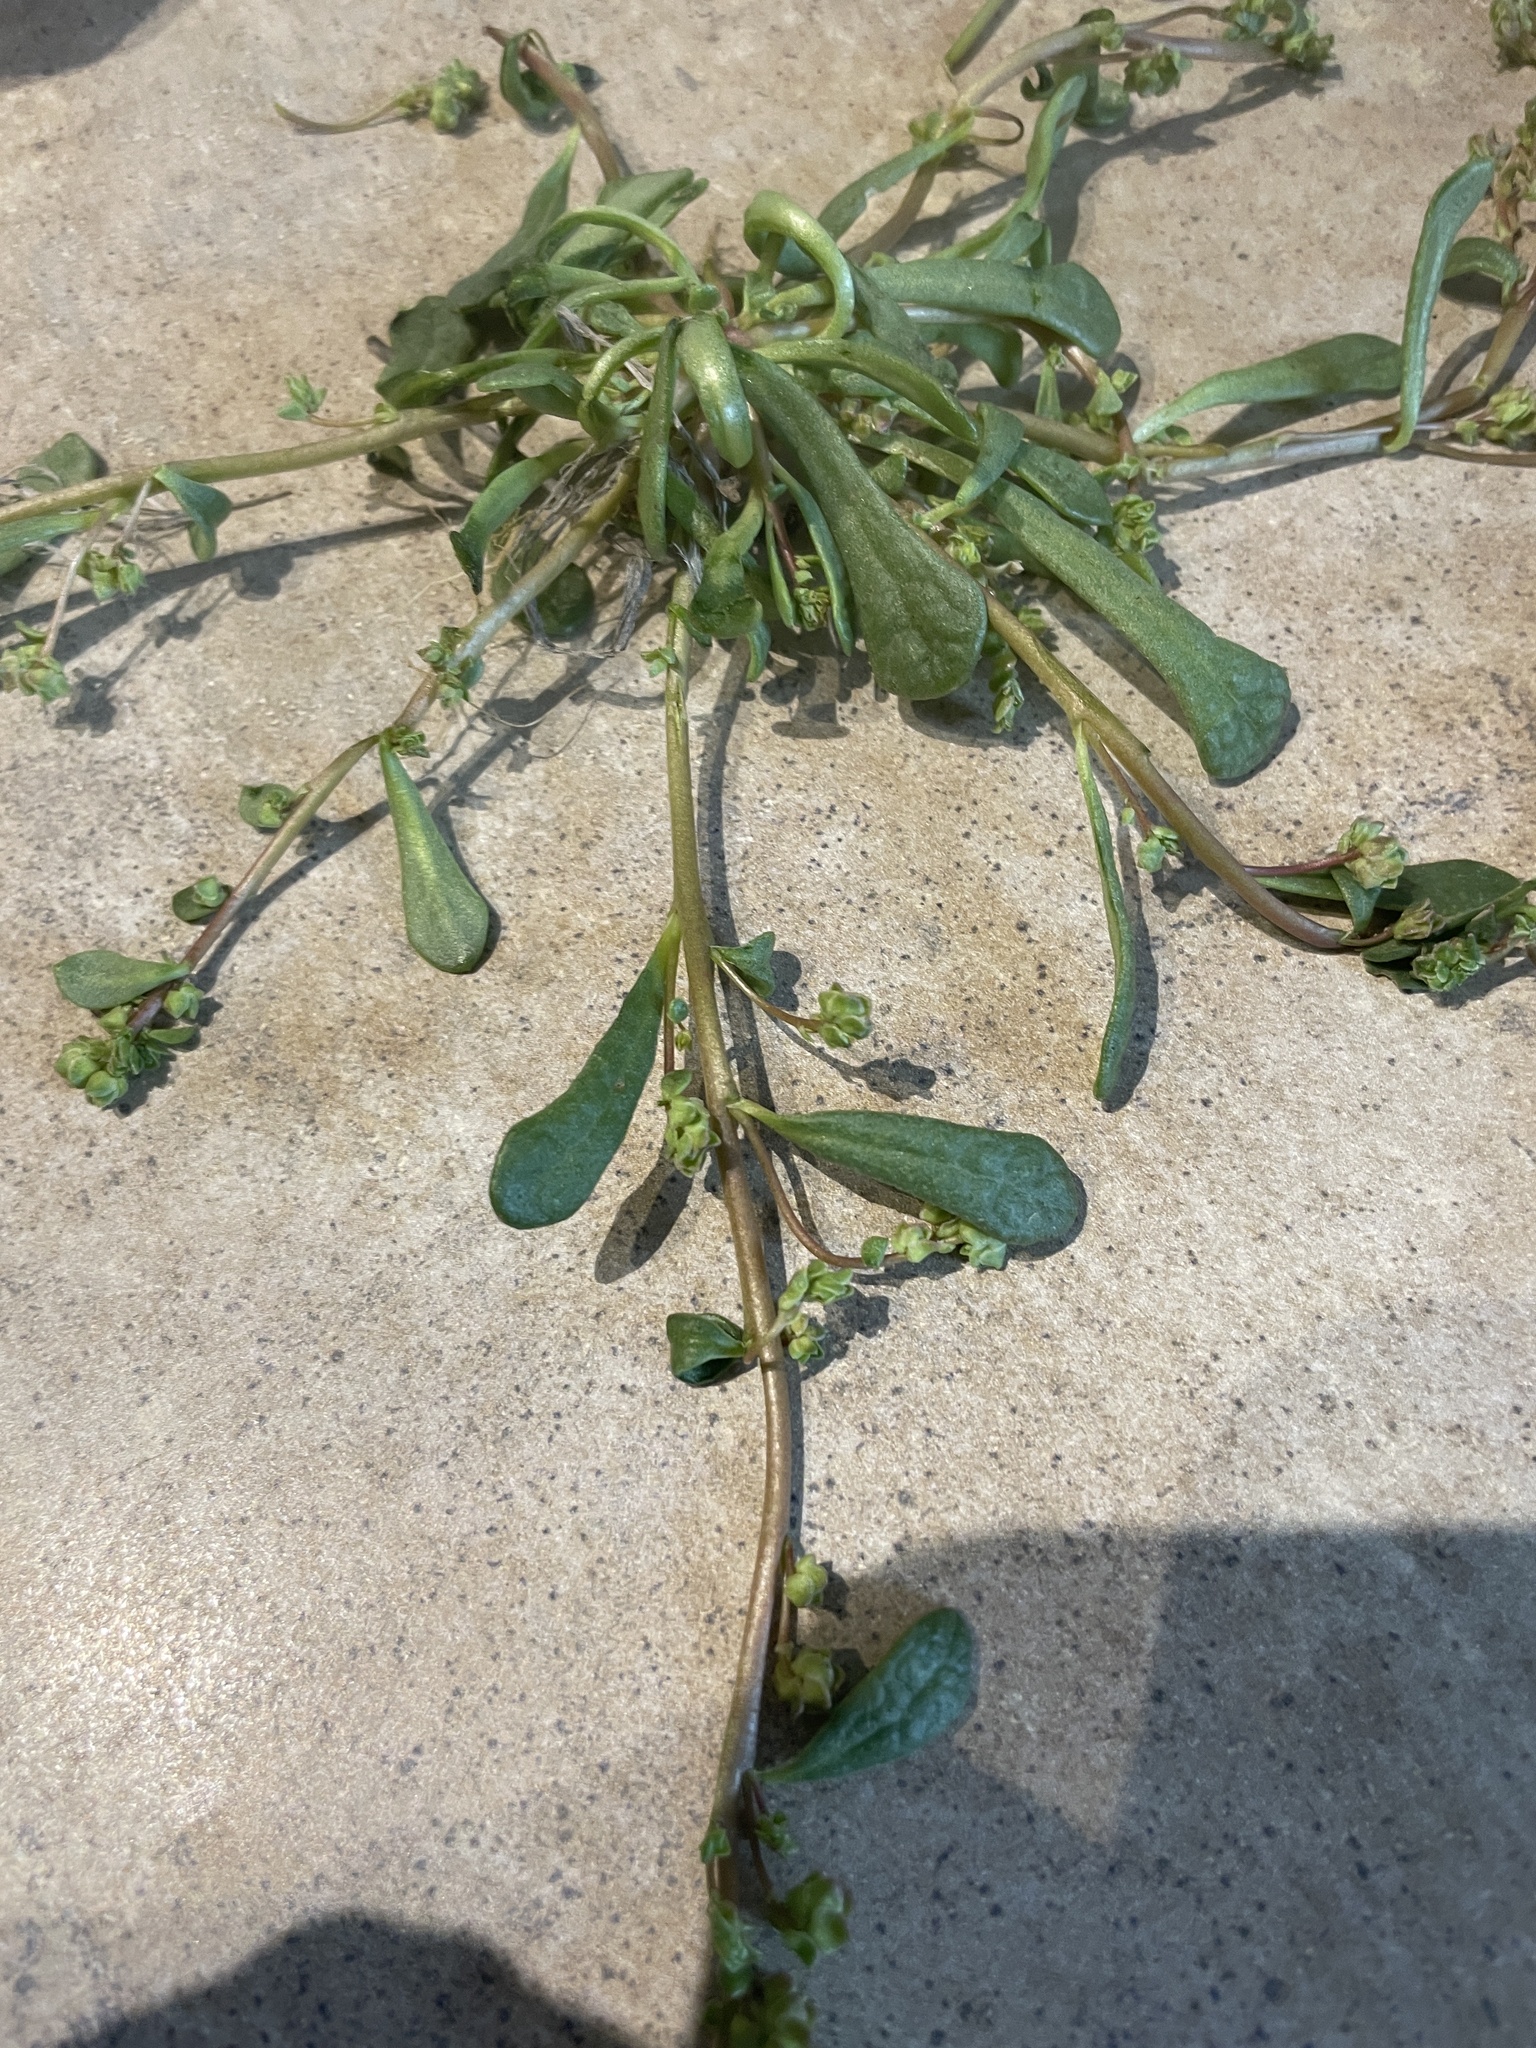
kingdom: Plantae
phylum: Tracheophyta
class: Magnoliopsida
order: Caryophyllales
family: Montiaceae
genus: Calyptridium
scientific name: Calyptridium monandrum
